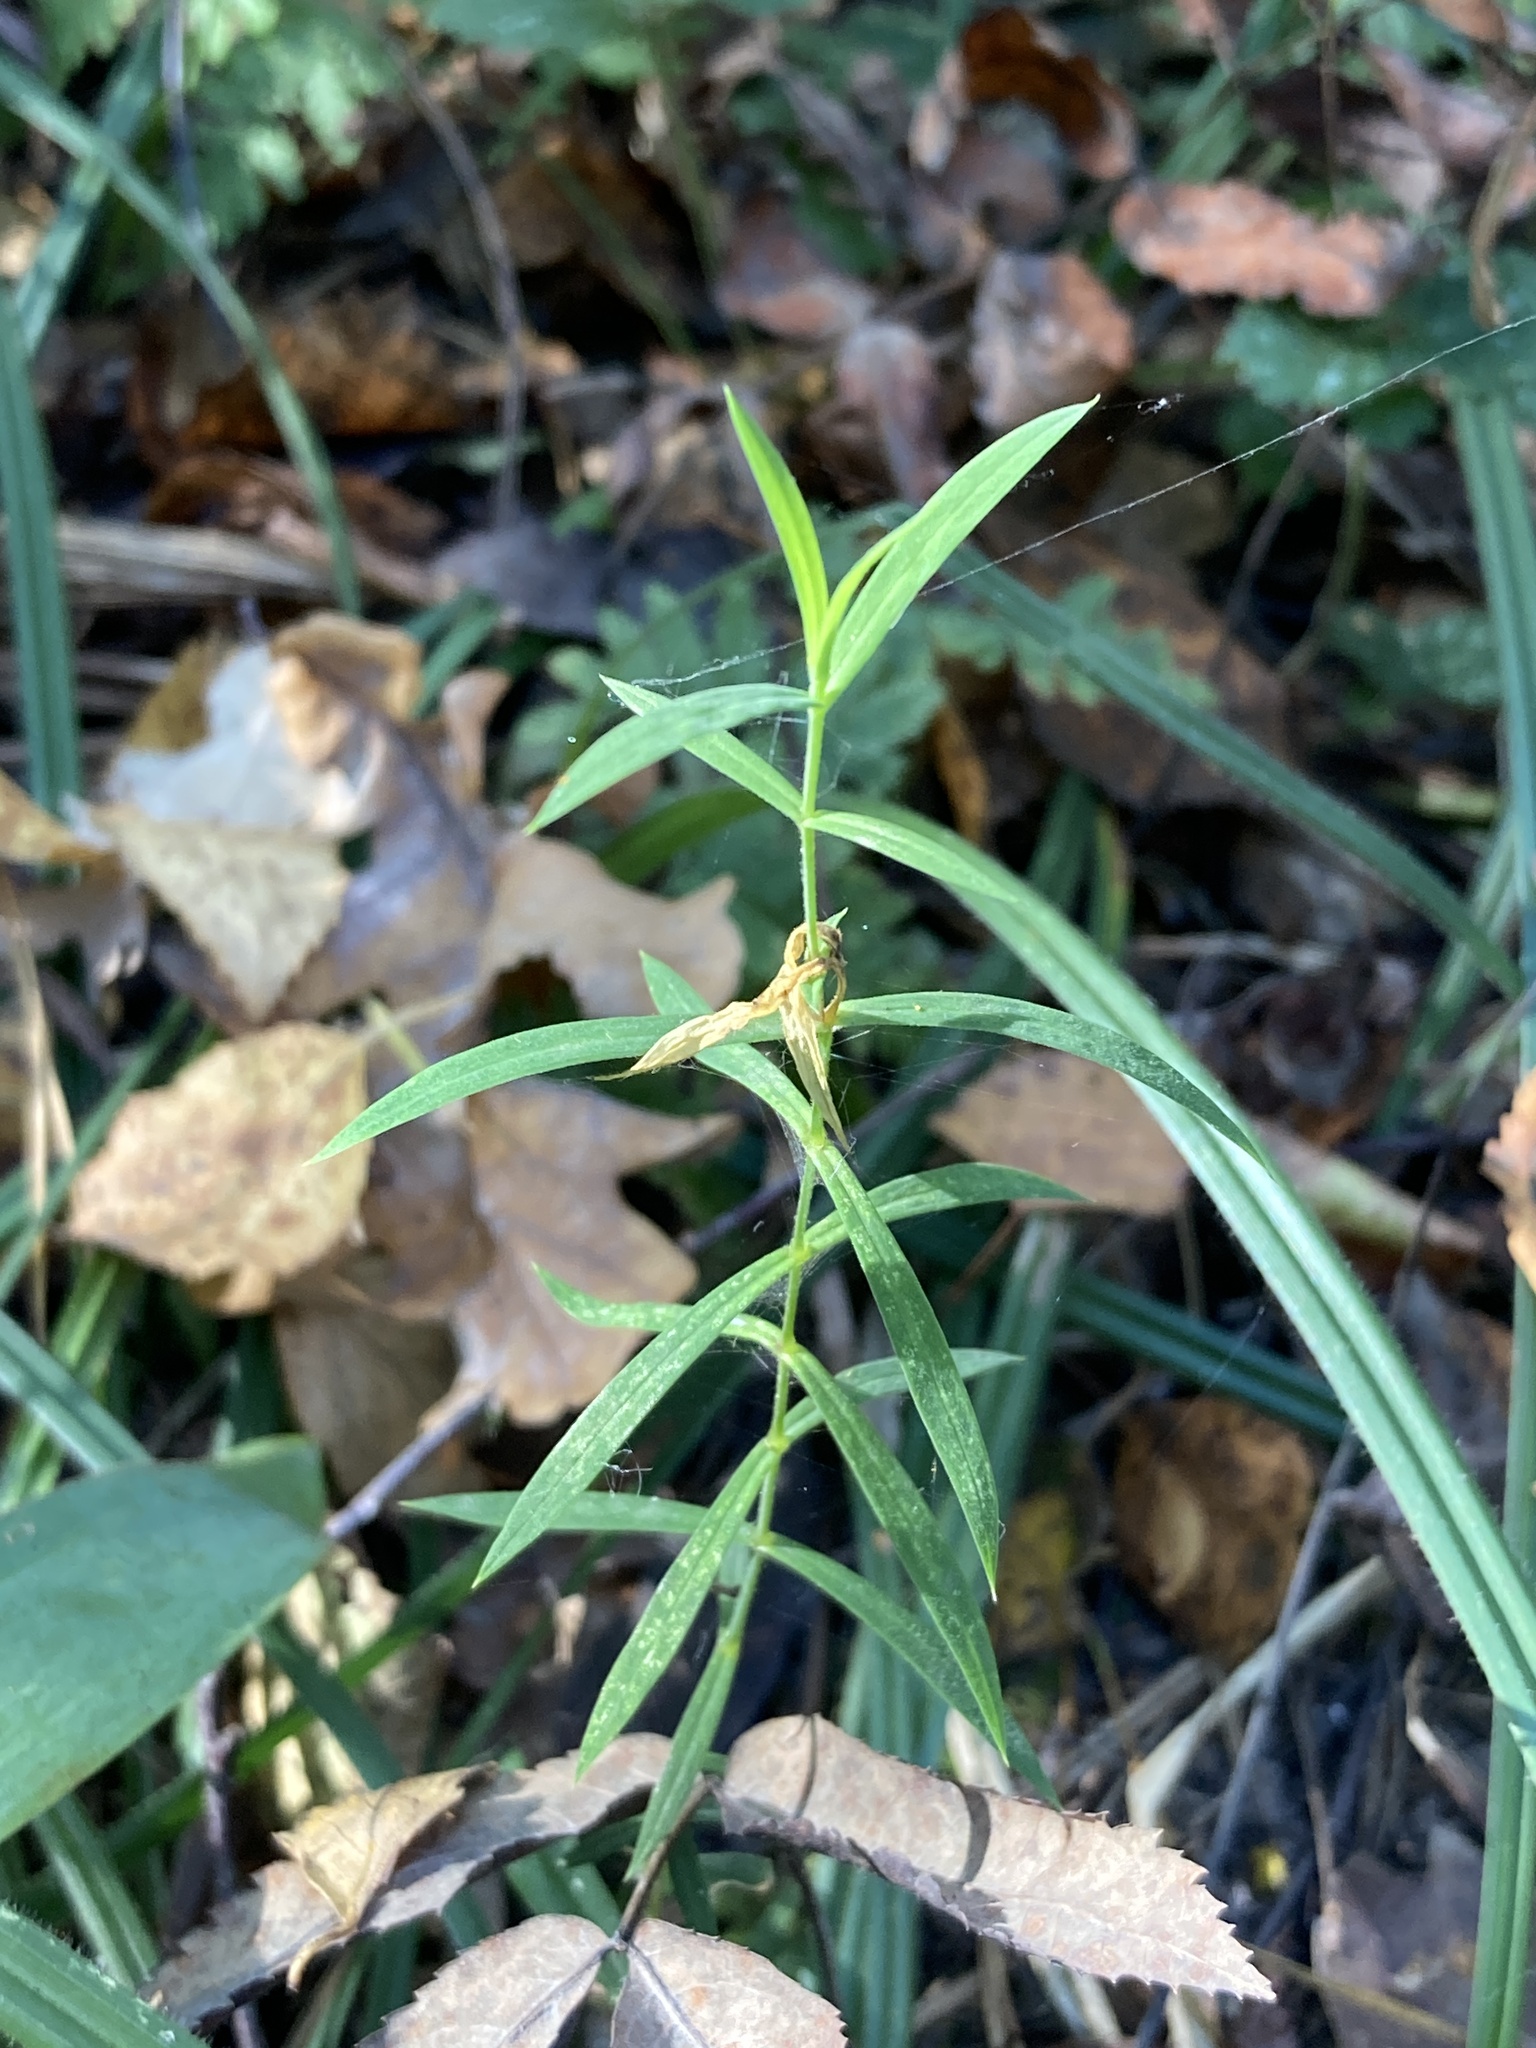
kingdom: Plantae
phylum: Tracheophyta
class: Magnoliopsida
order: Caryophyllales
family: Caryophyllaceae
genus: Rabelera
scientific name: Rabelera holostea
